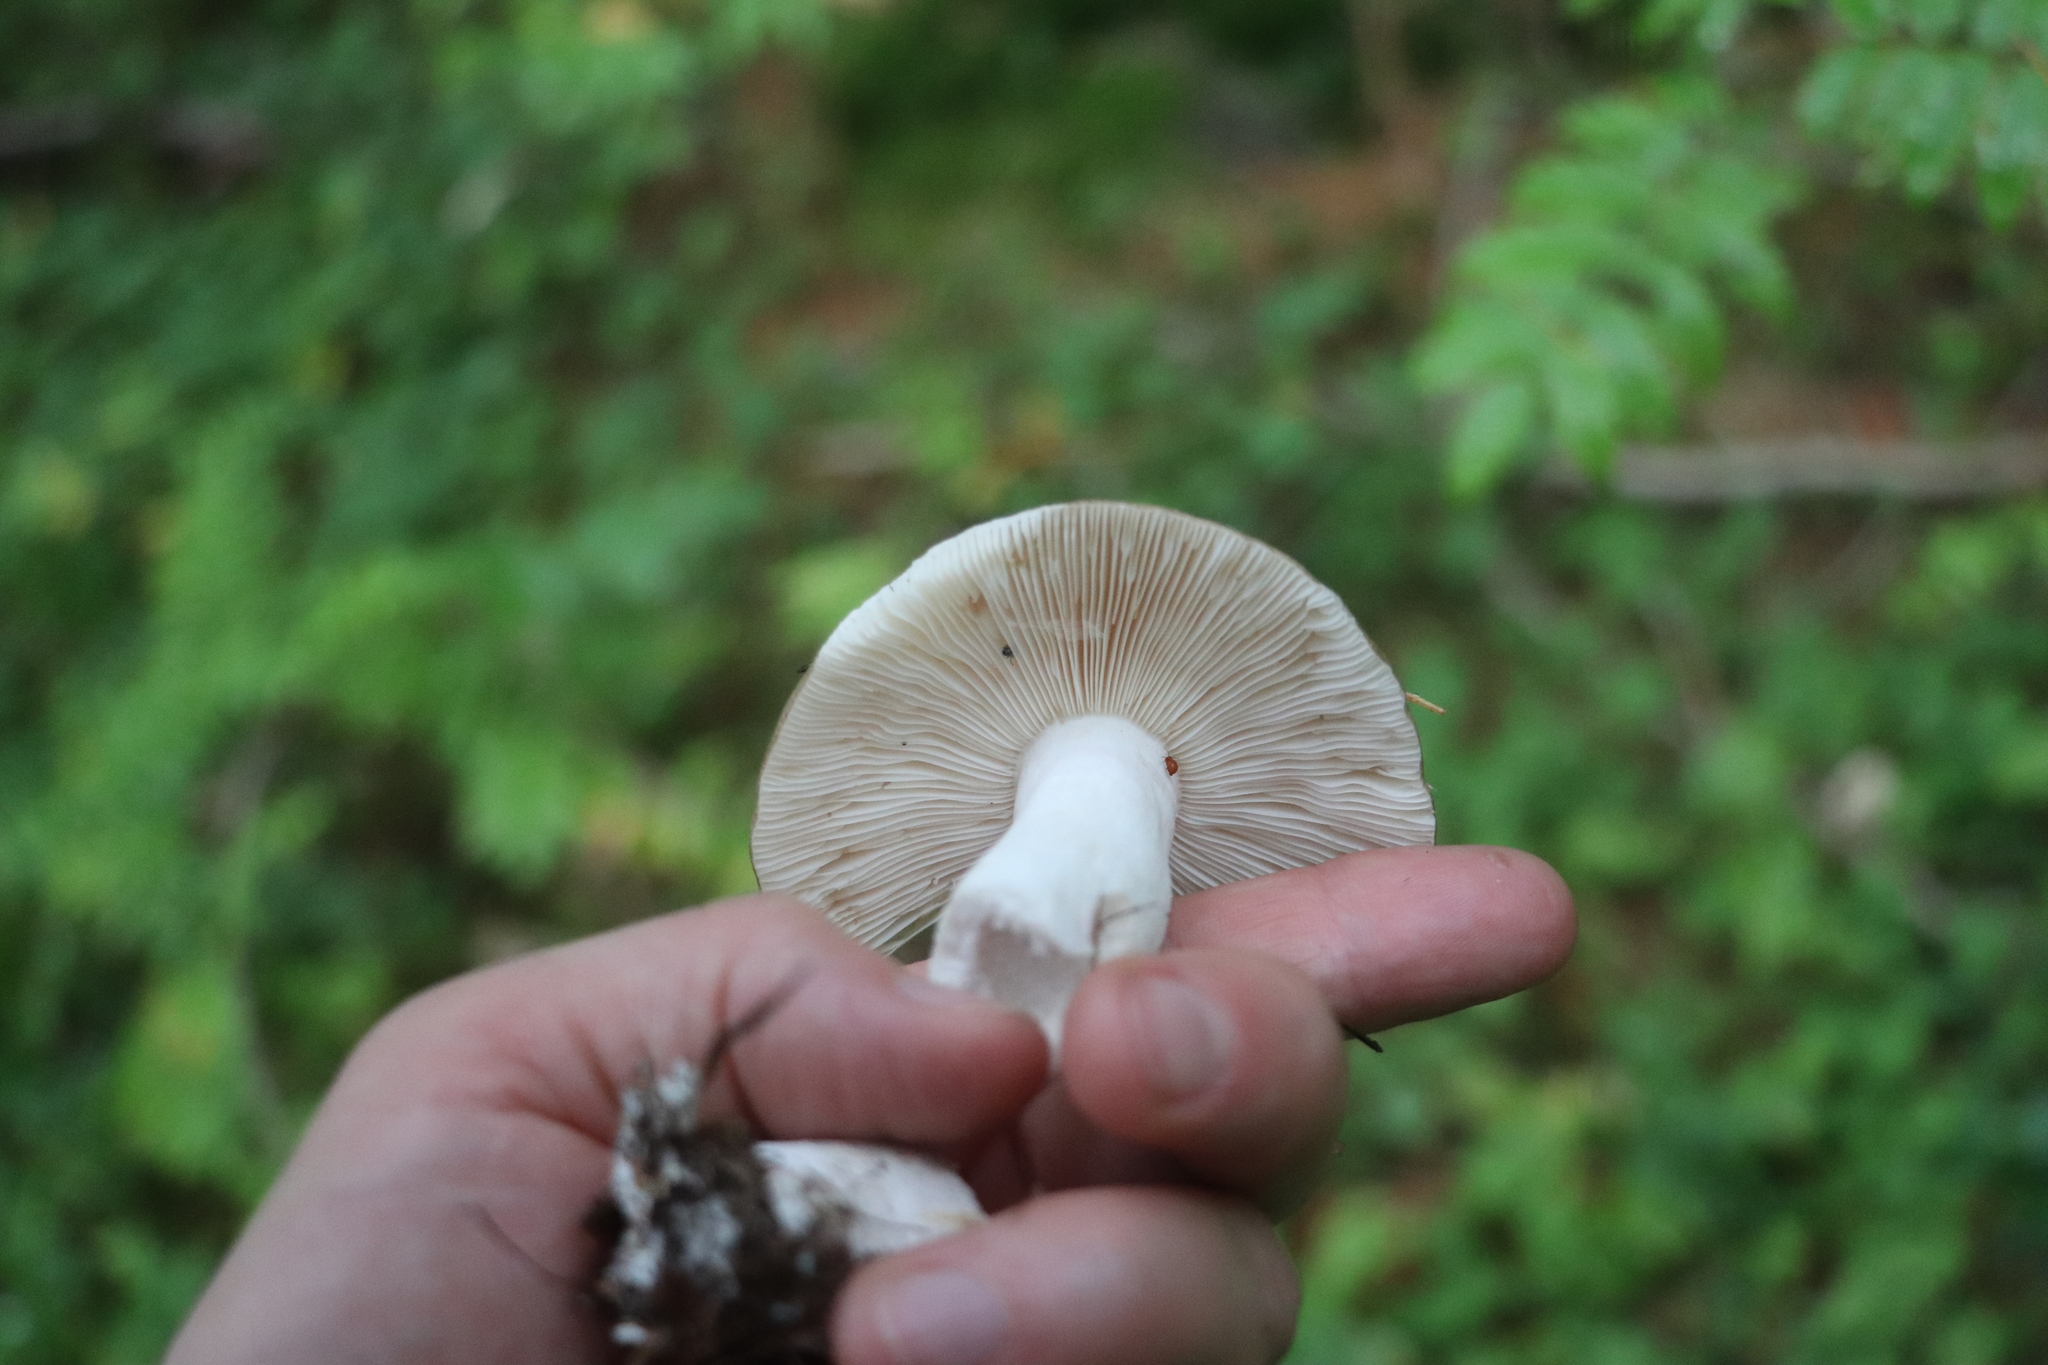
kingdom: Fungi
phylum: Basidiomycota
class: Agaricomycetes
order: Russulales
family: Russulaceae
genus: Russula
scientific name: Russula consobrina
